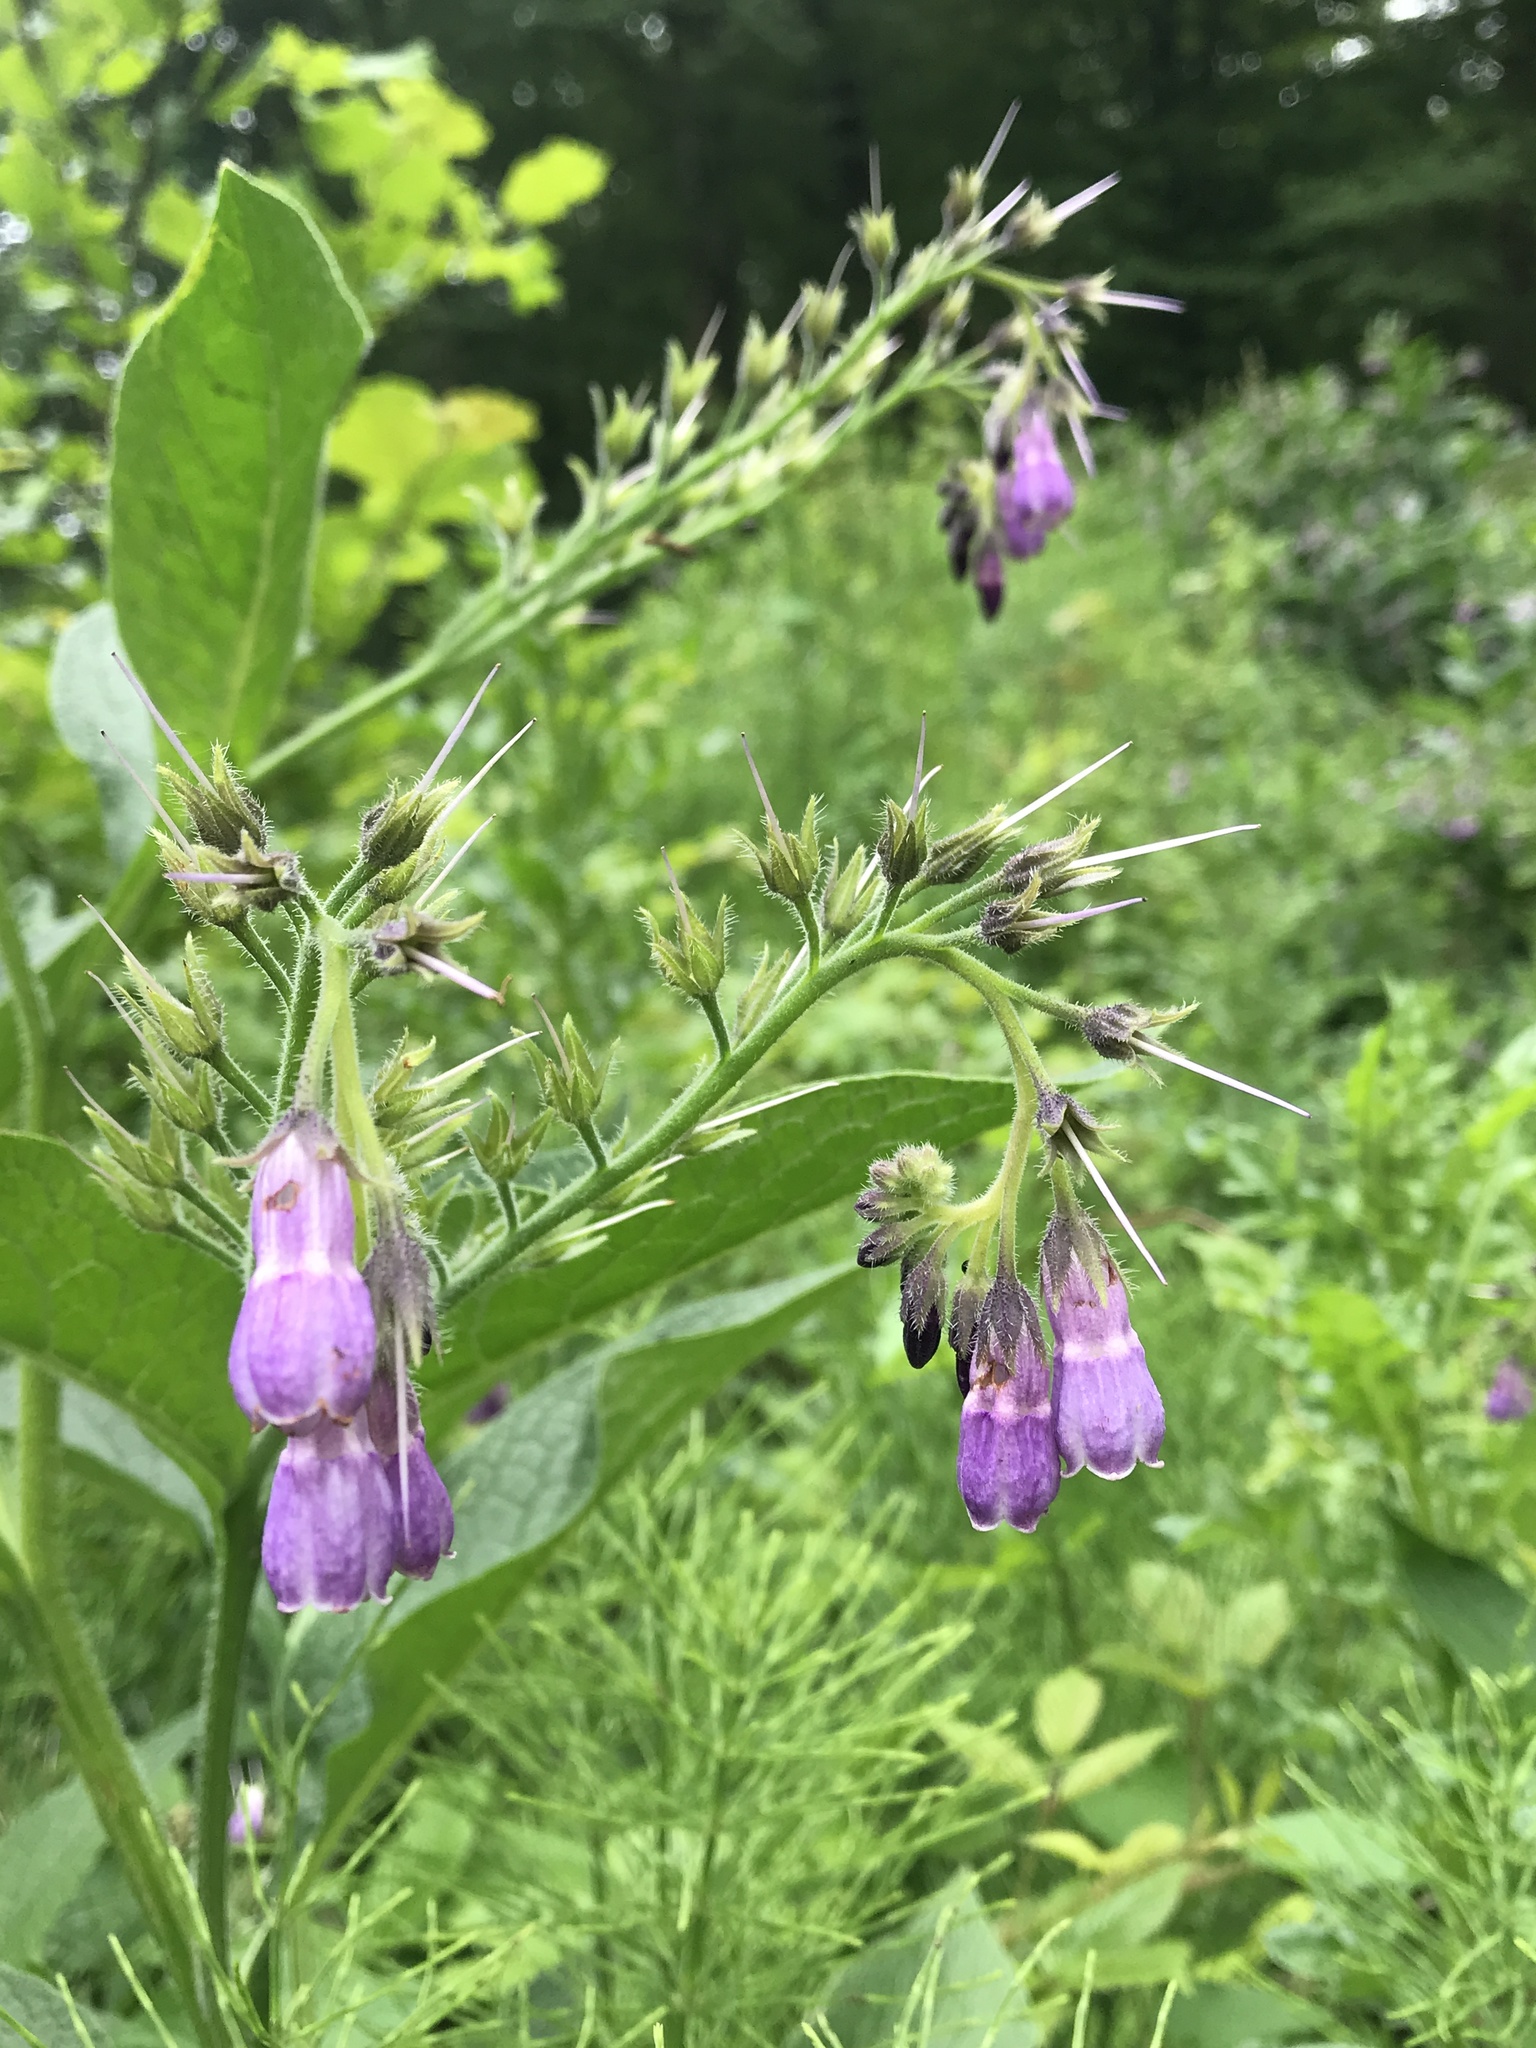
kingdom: Plantae
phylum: Tracheophyta
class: Magnoliopsida
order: Boraginales
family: Boraginaceae
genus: Symphytum
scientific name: Symphytum officinale
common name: Common comfrey
